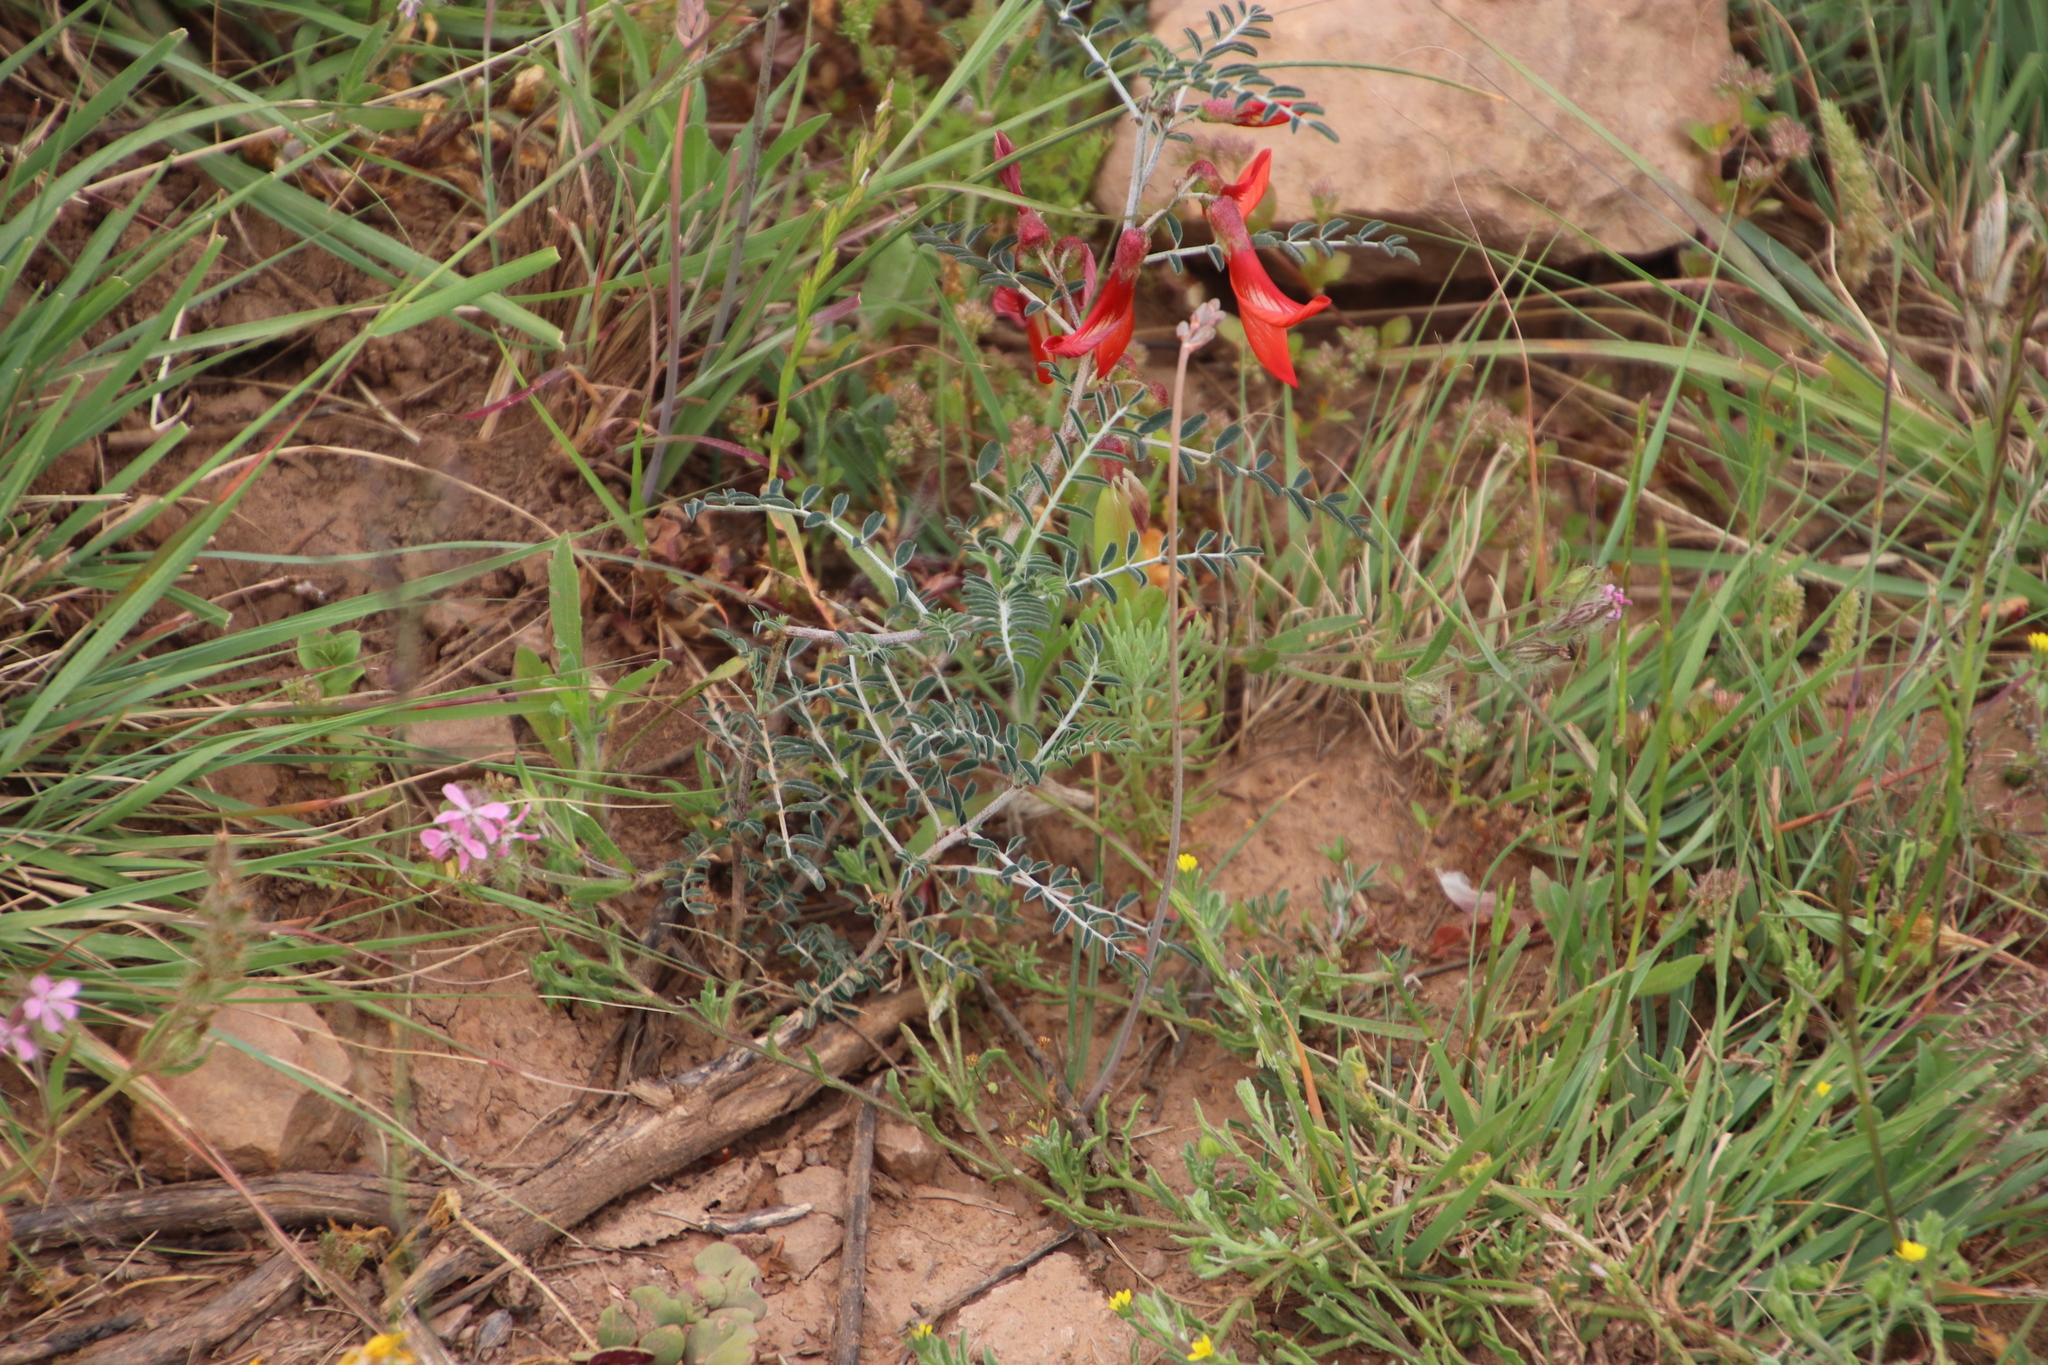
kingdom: Plantae
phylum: Tracheophyta
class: Magnoliopsida
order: Fabales
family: Fabaceae
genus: Lessertia
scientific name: Lessertia frutescens
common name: Balloon-pea
